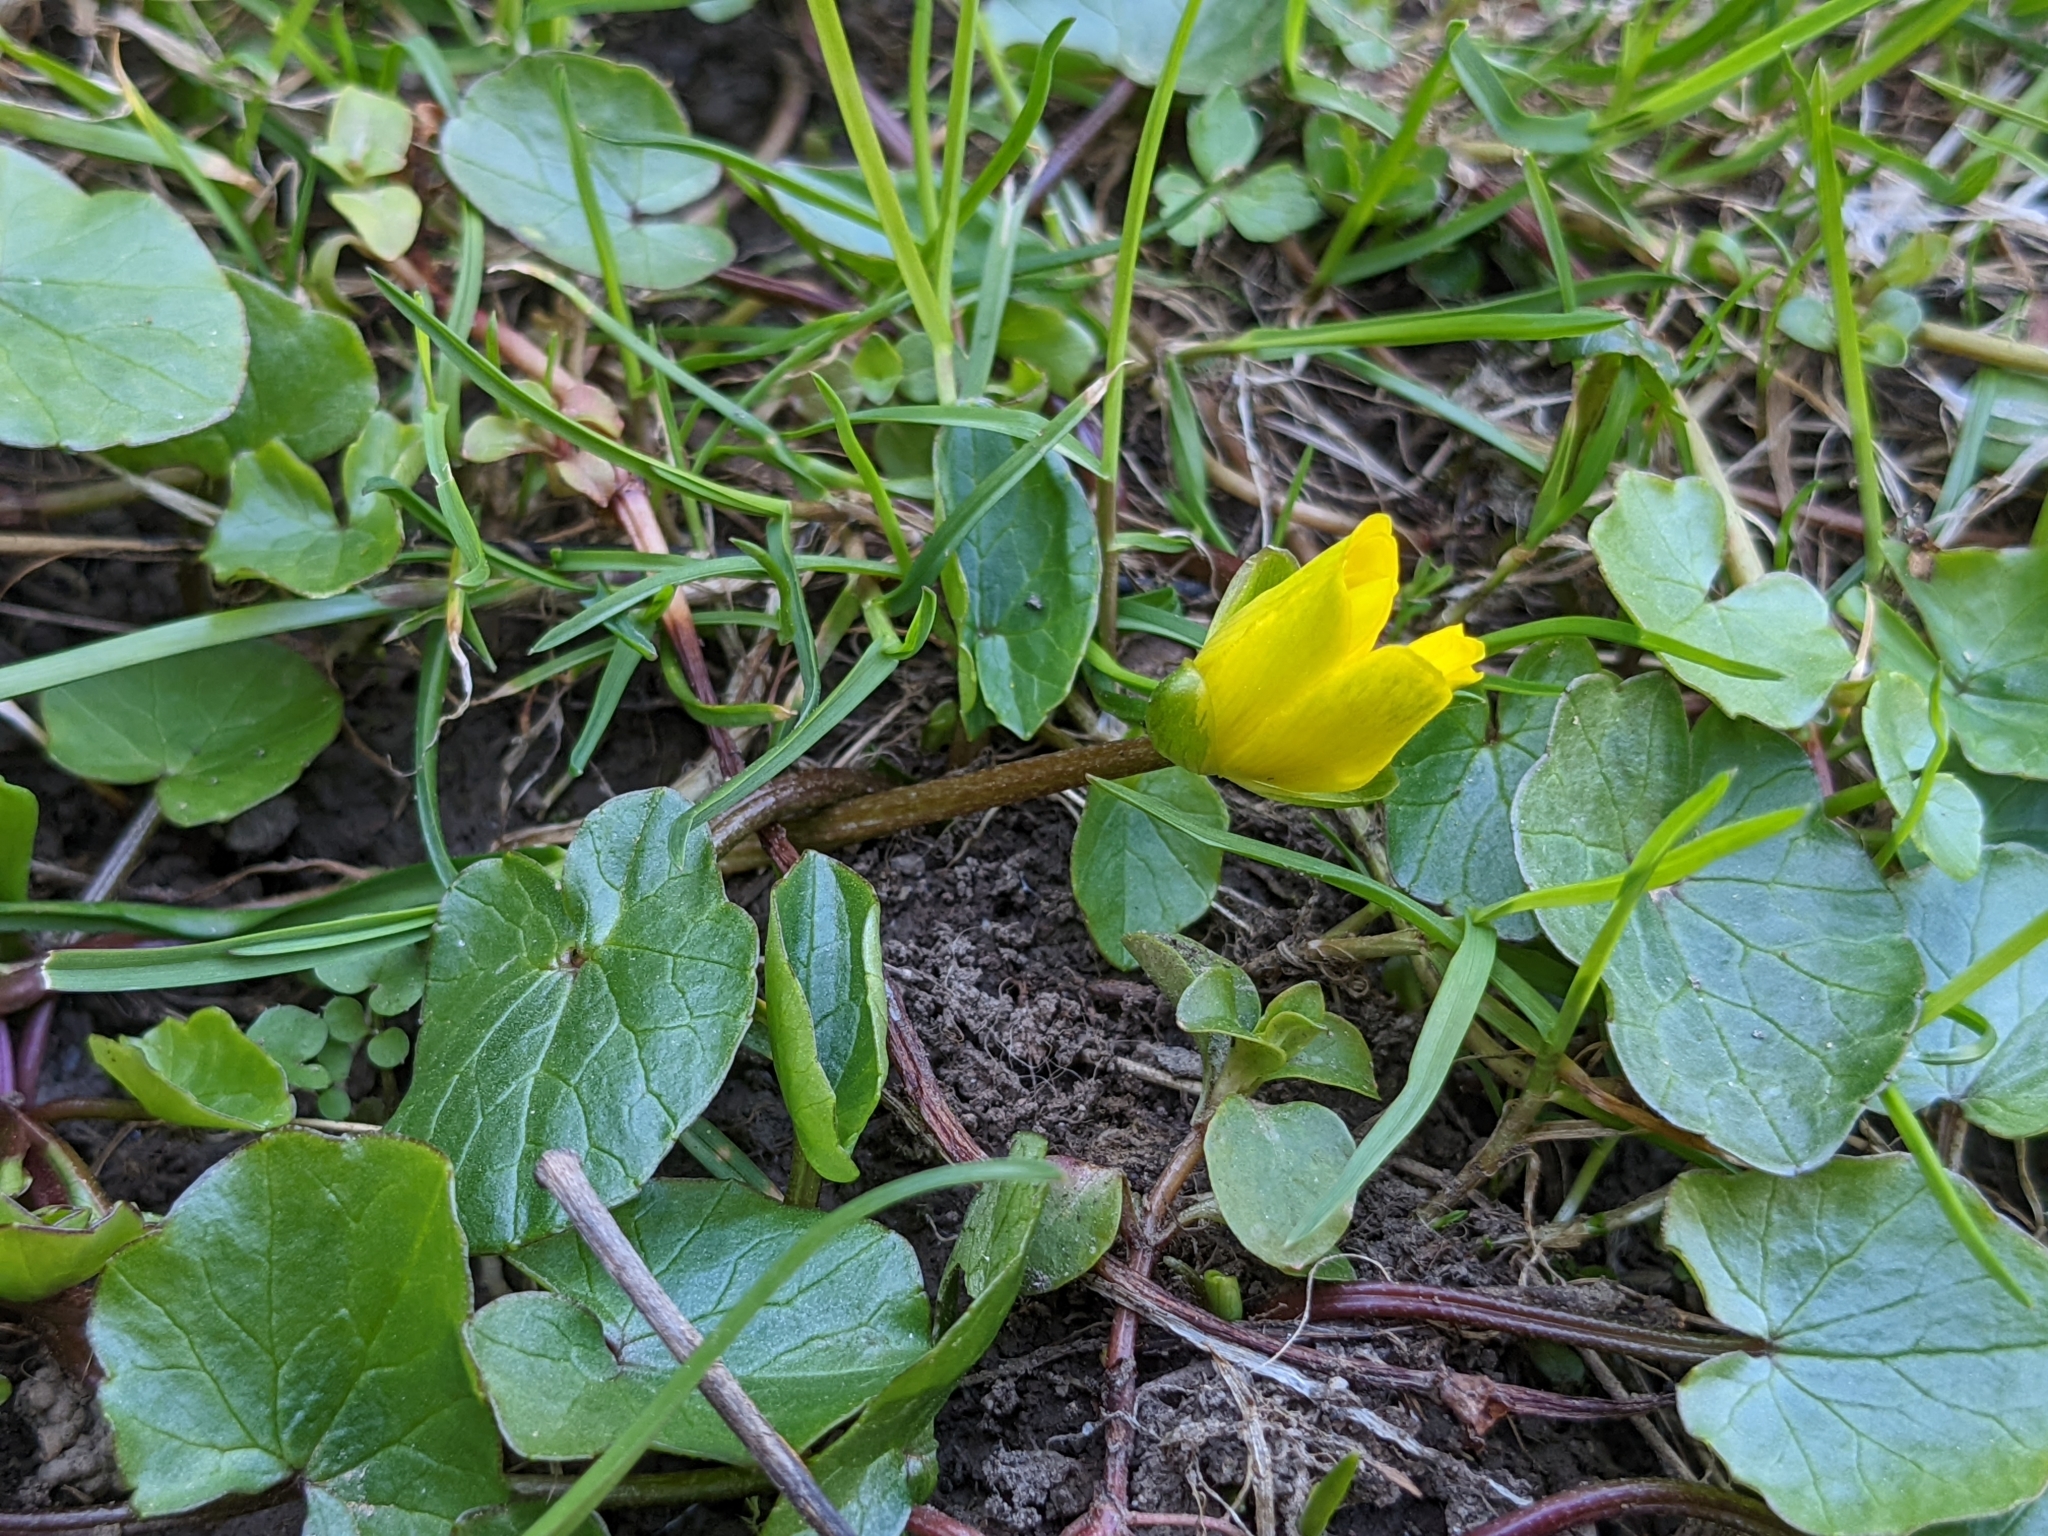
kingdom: Plantae
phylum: Tracheophyta
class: Magnoliopsida
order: Ranunculales
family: Ranunculaceae
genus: Ficaria
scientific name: Ficaria verna
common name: Lesser celandine
